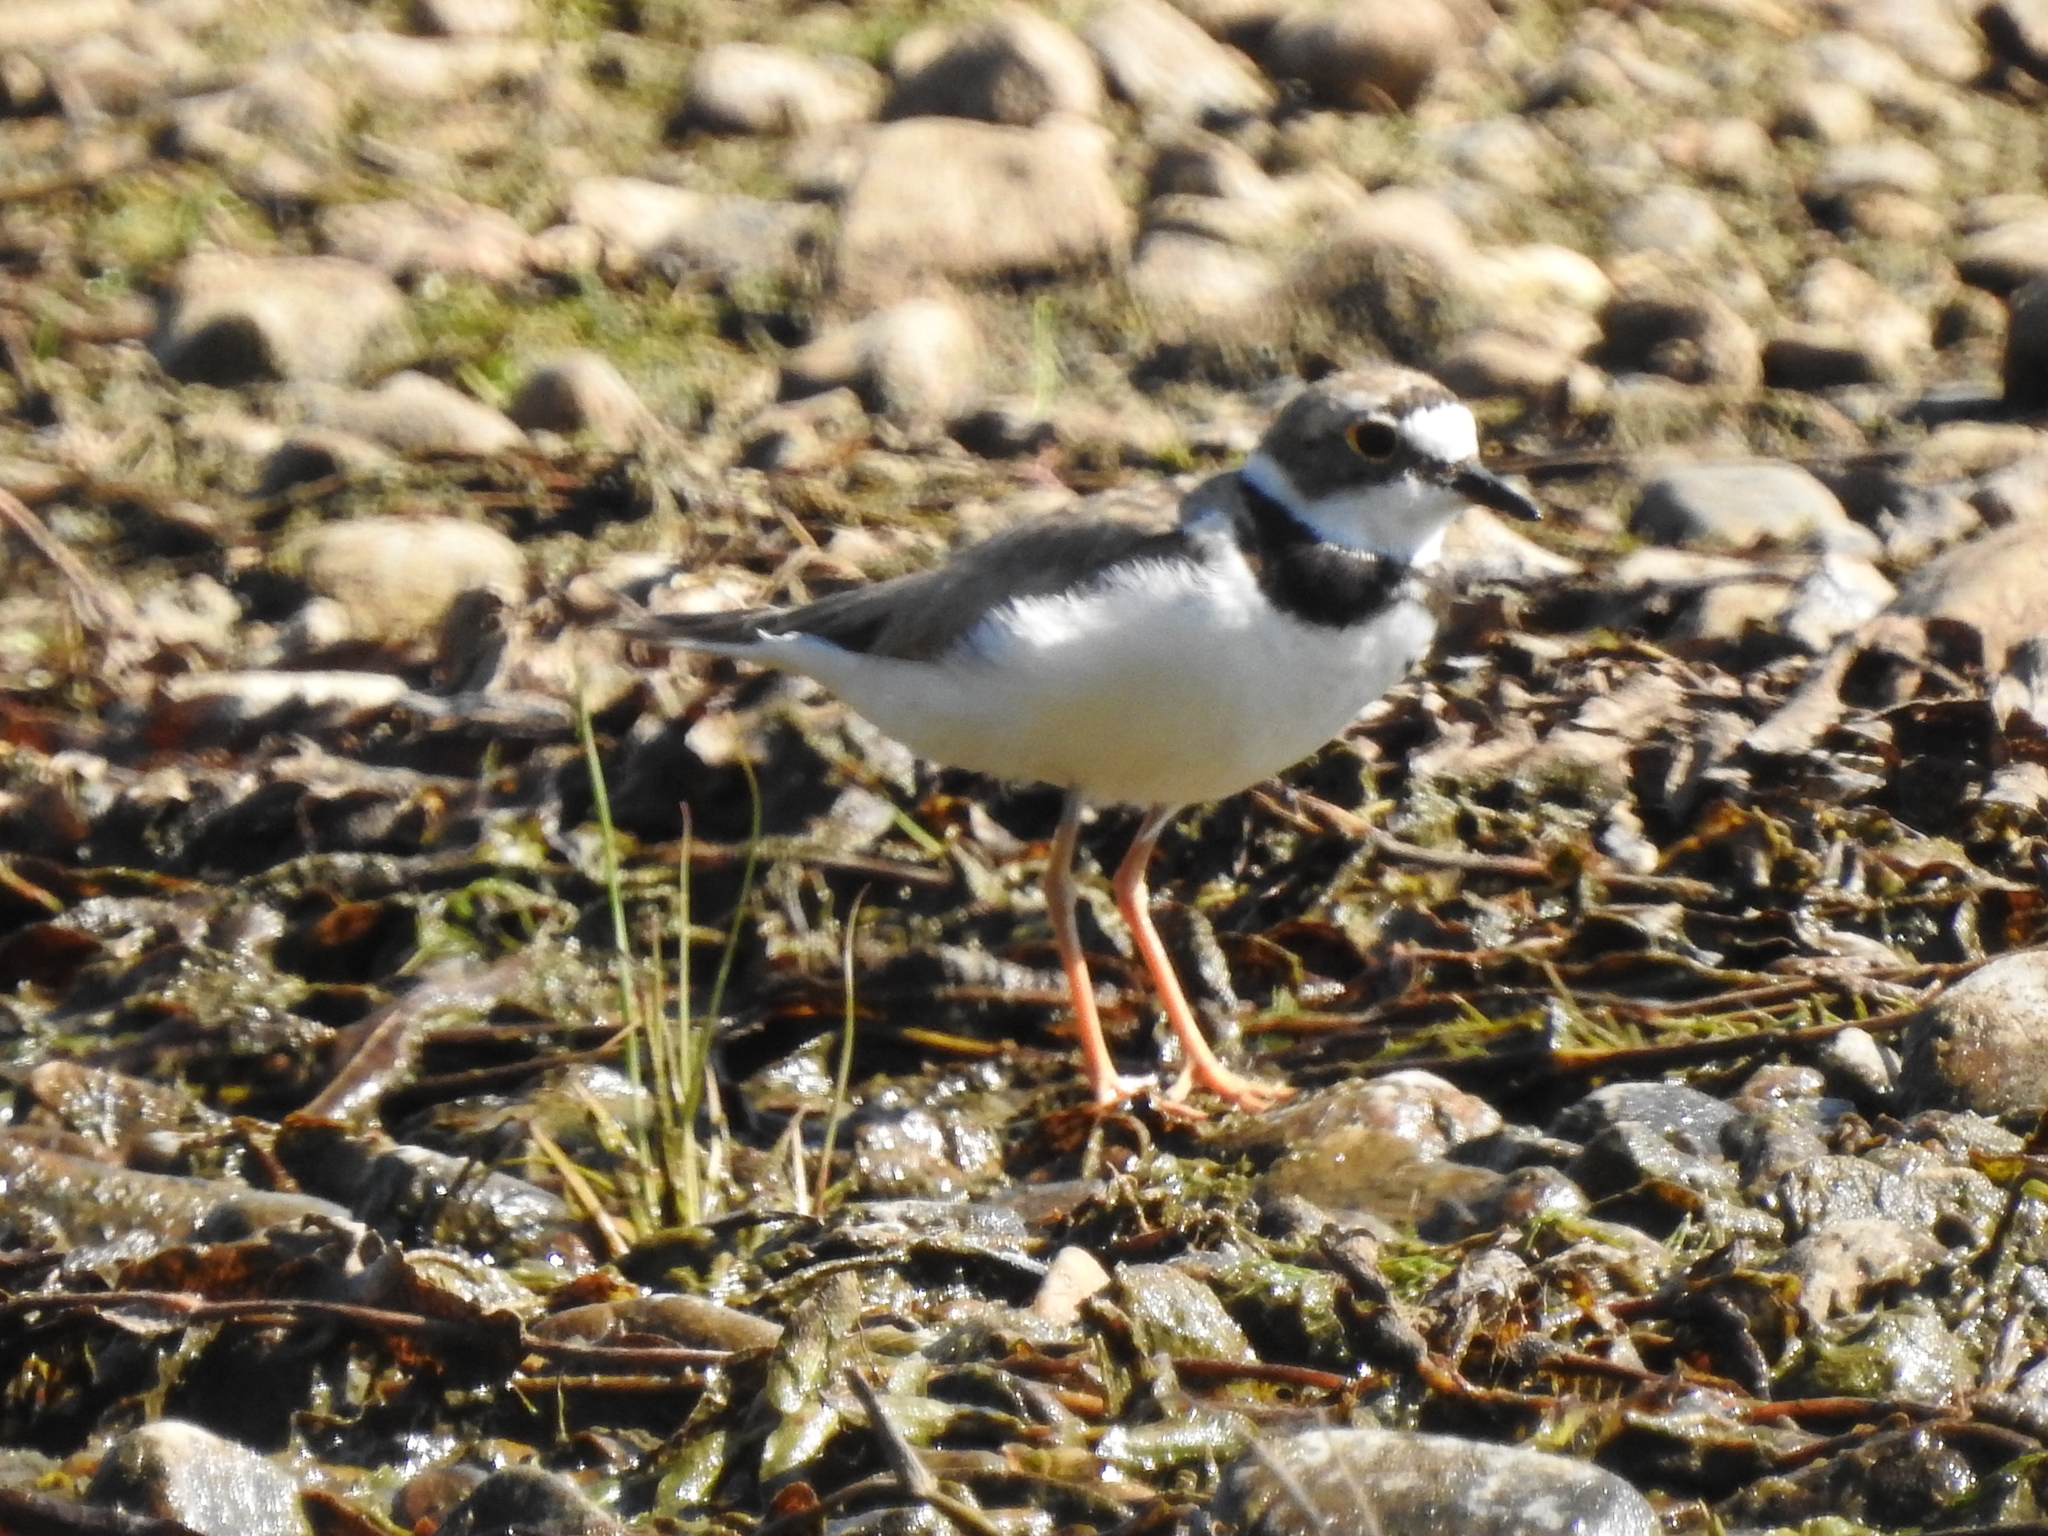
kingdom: Animalia
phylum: Chordata
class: Aves
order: Charadriiformes
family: Charadriidae
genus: Charadrius
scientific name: Charadrius dubius
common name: Little ringed plover
